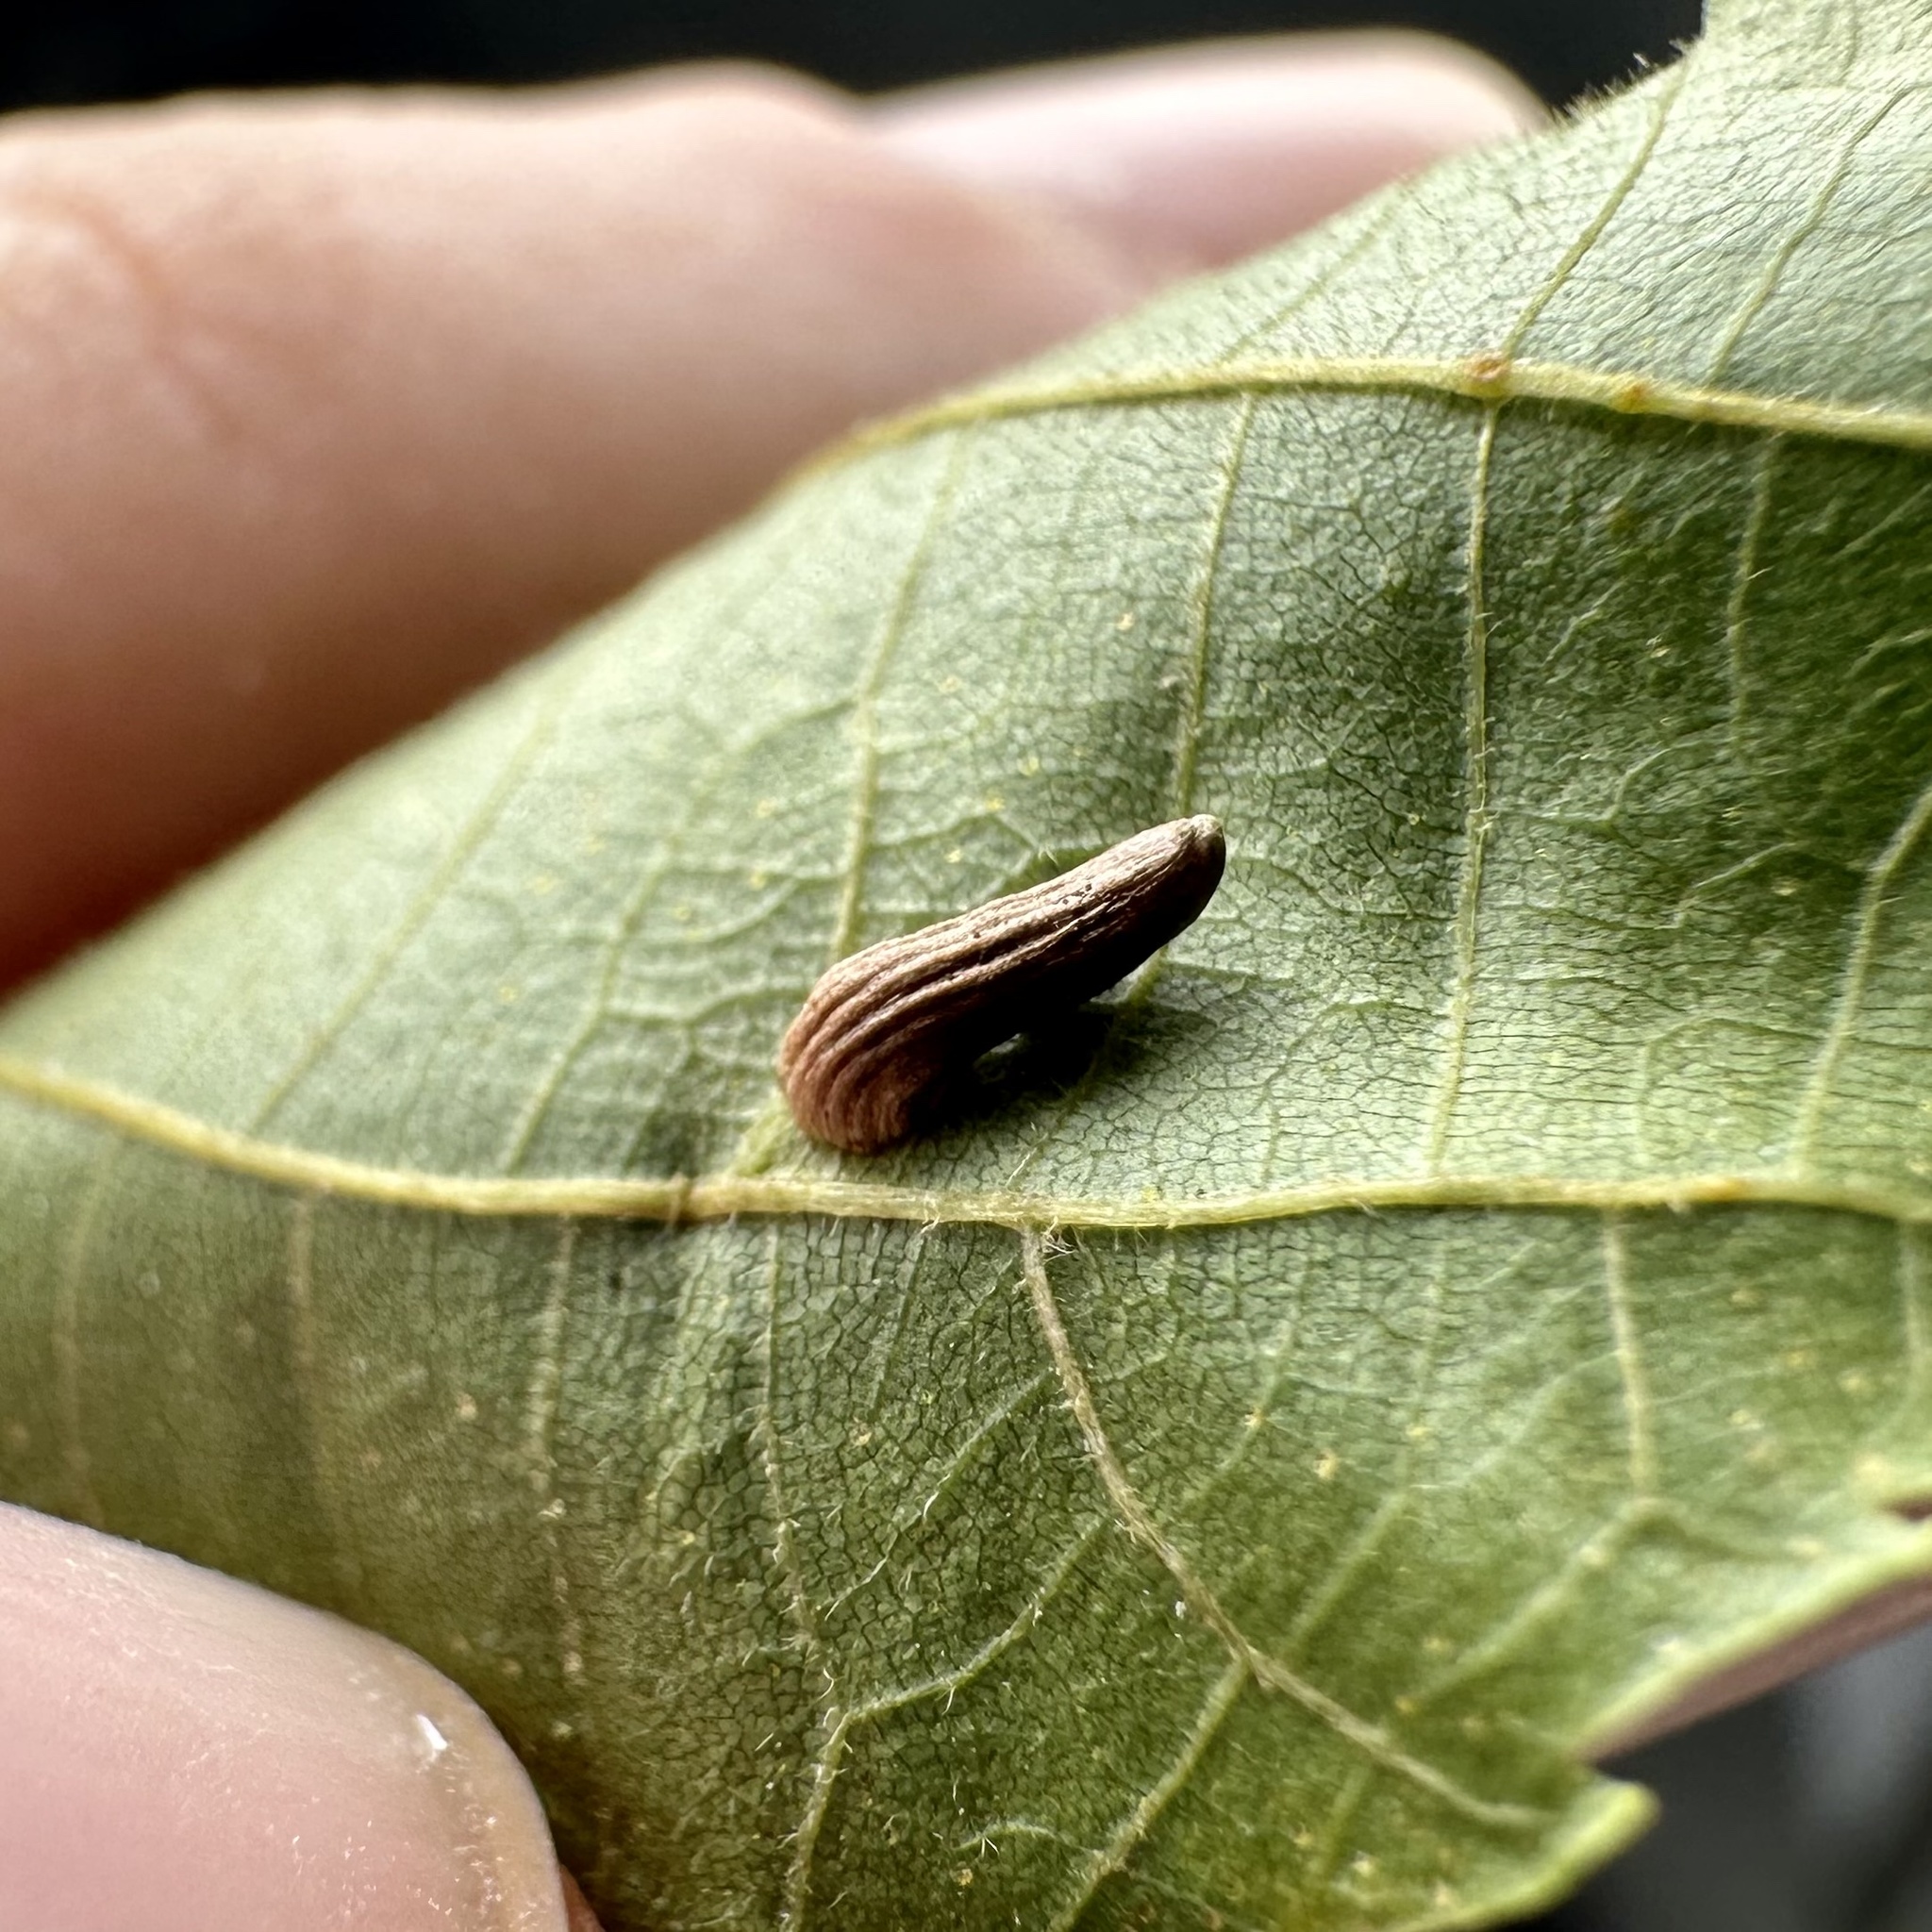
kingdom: Animalia
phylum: Arthropoda
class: Insecta
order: Diptera
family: Cecidomyiidae
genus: Caryomyia
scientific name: Caryomyia striolata
